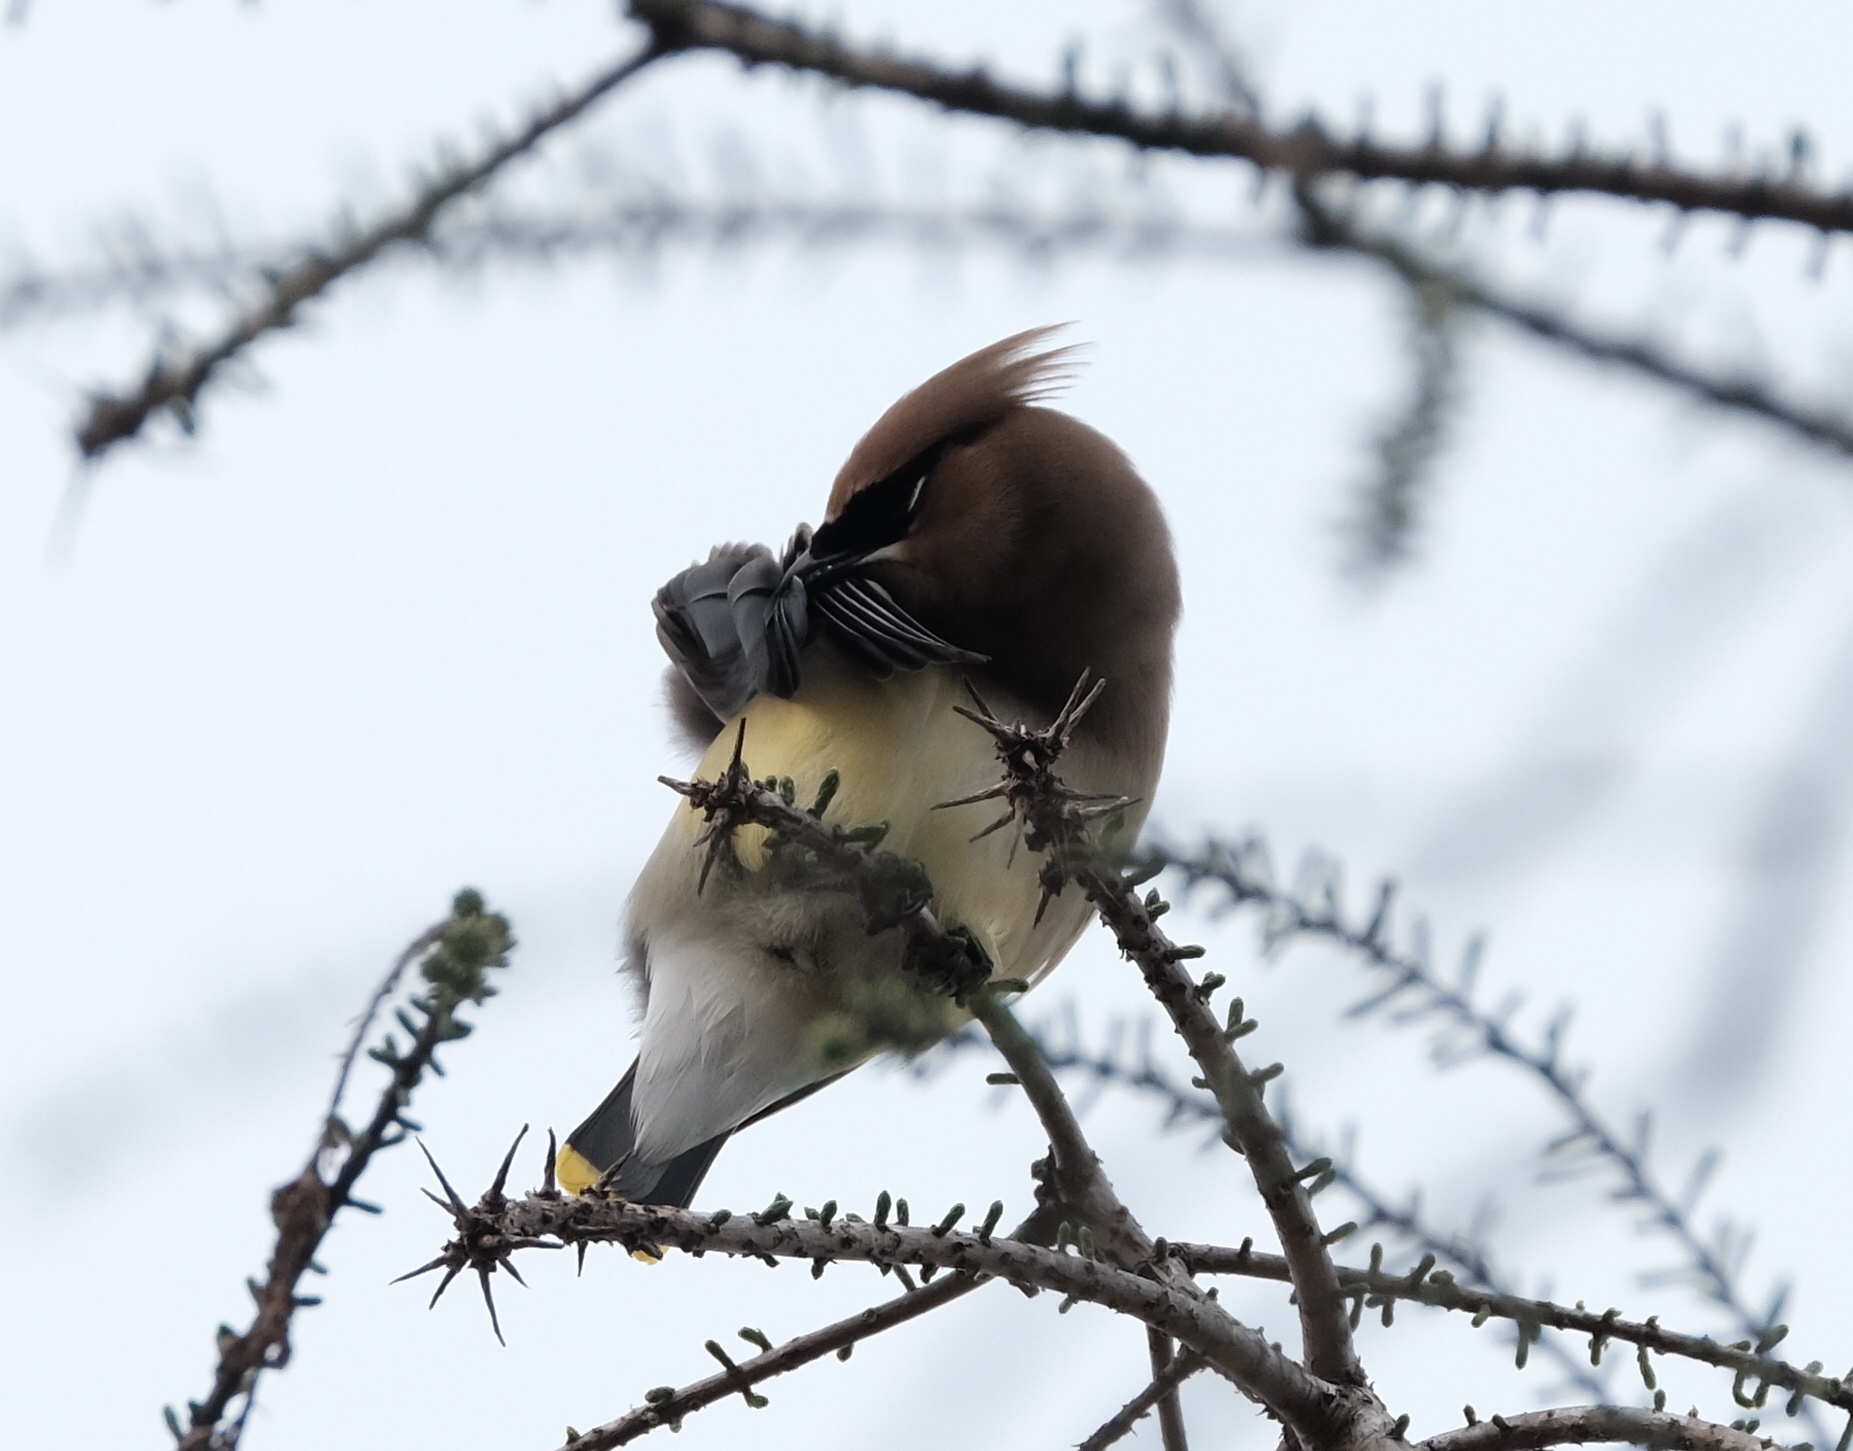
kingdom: Animalia
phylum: Chordata
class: Aves
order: Passeriformes
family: Bombycillidae
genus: Bombycilla
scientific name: Bombycilla cedrorum
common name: Cedar waxwing
